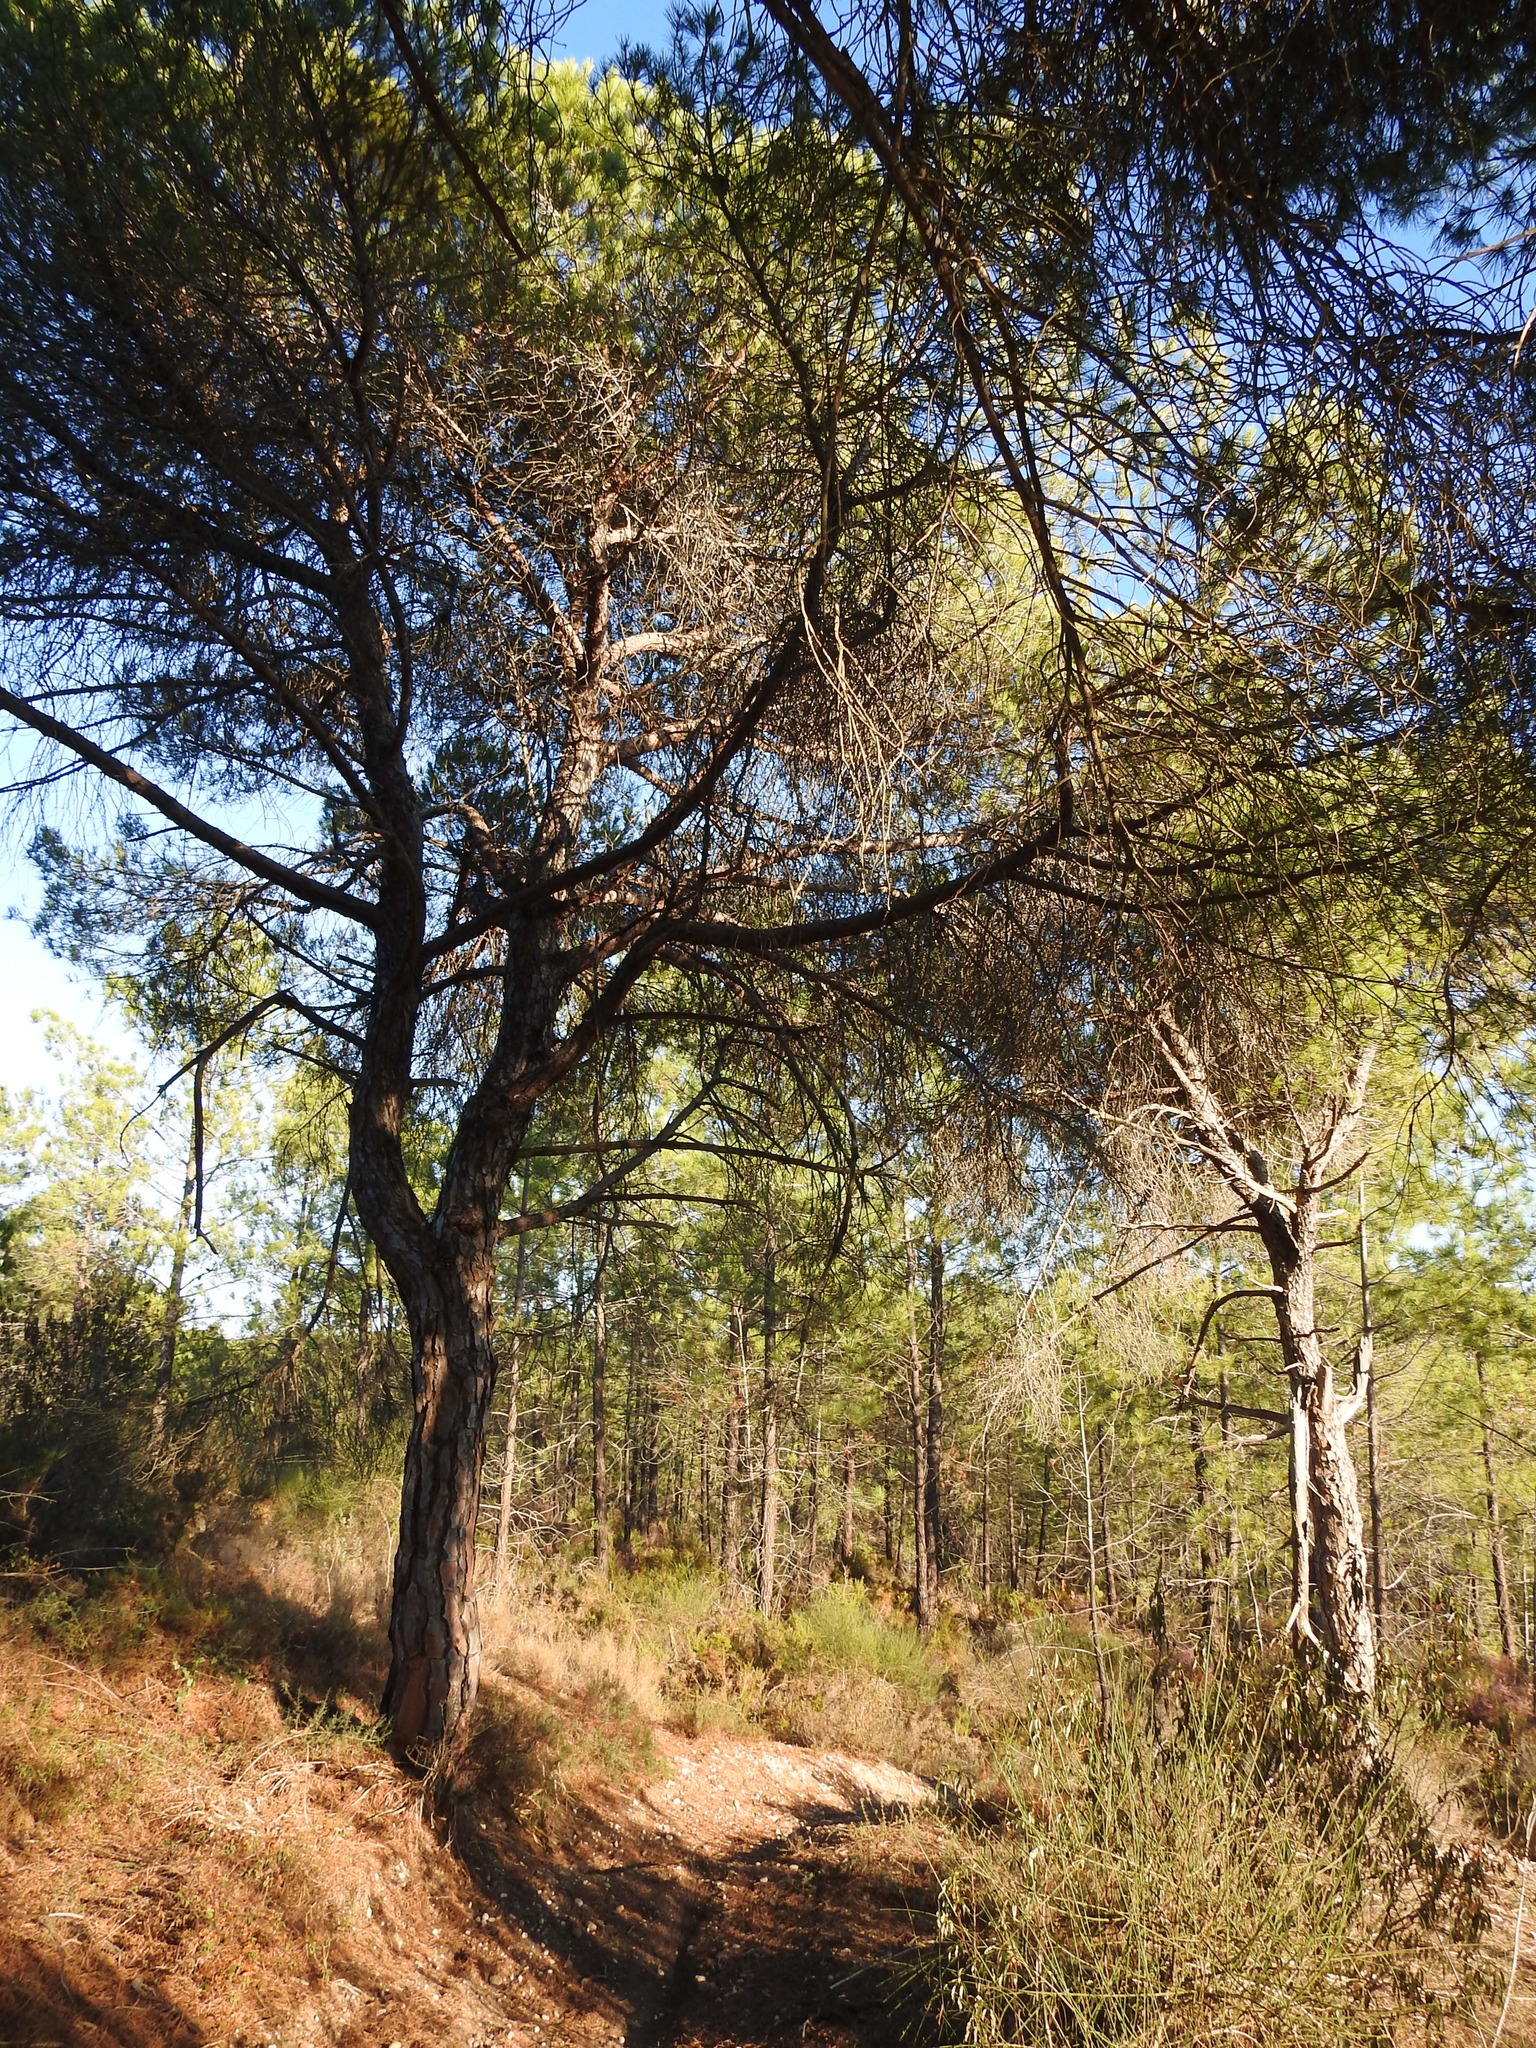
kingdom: Plantae
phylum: Tracheophyta
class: Pinopsida
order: Pinales
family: Pinaceae
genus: Pinus
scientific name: Pinus pinea
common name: Italian stone pine
